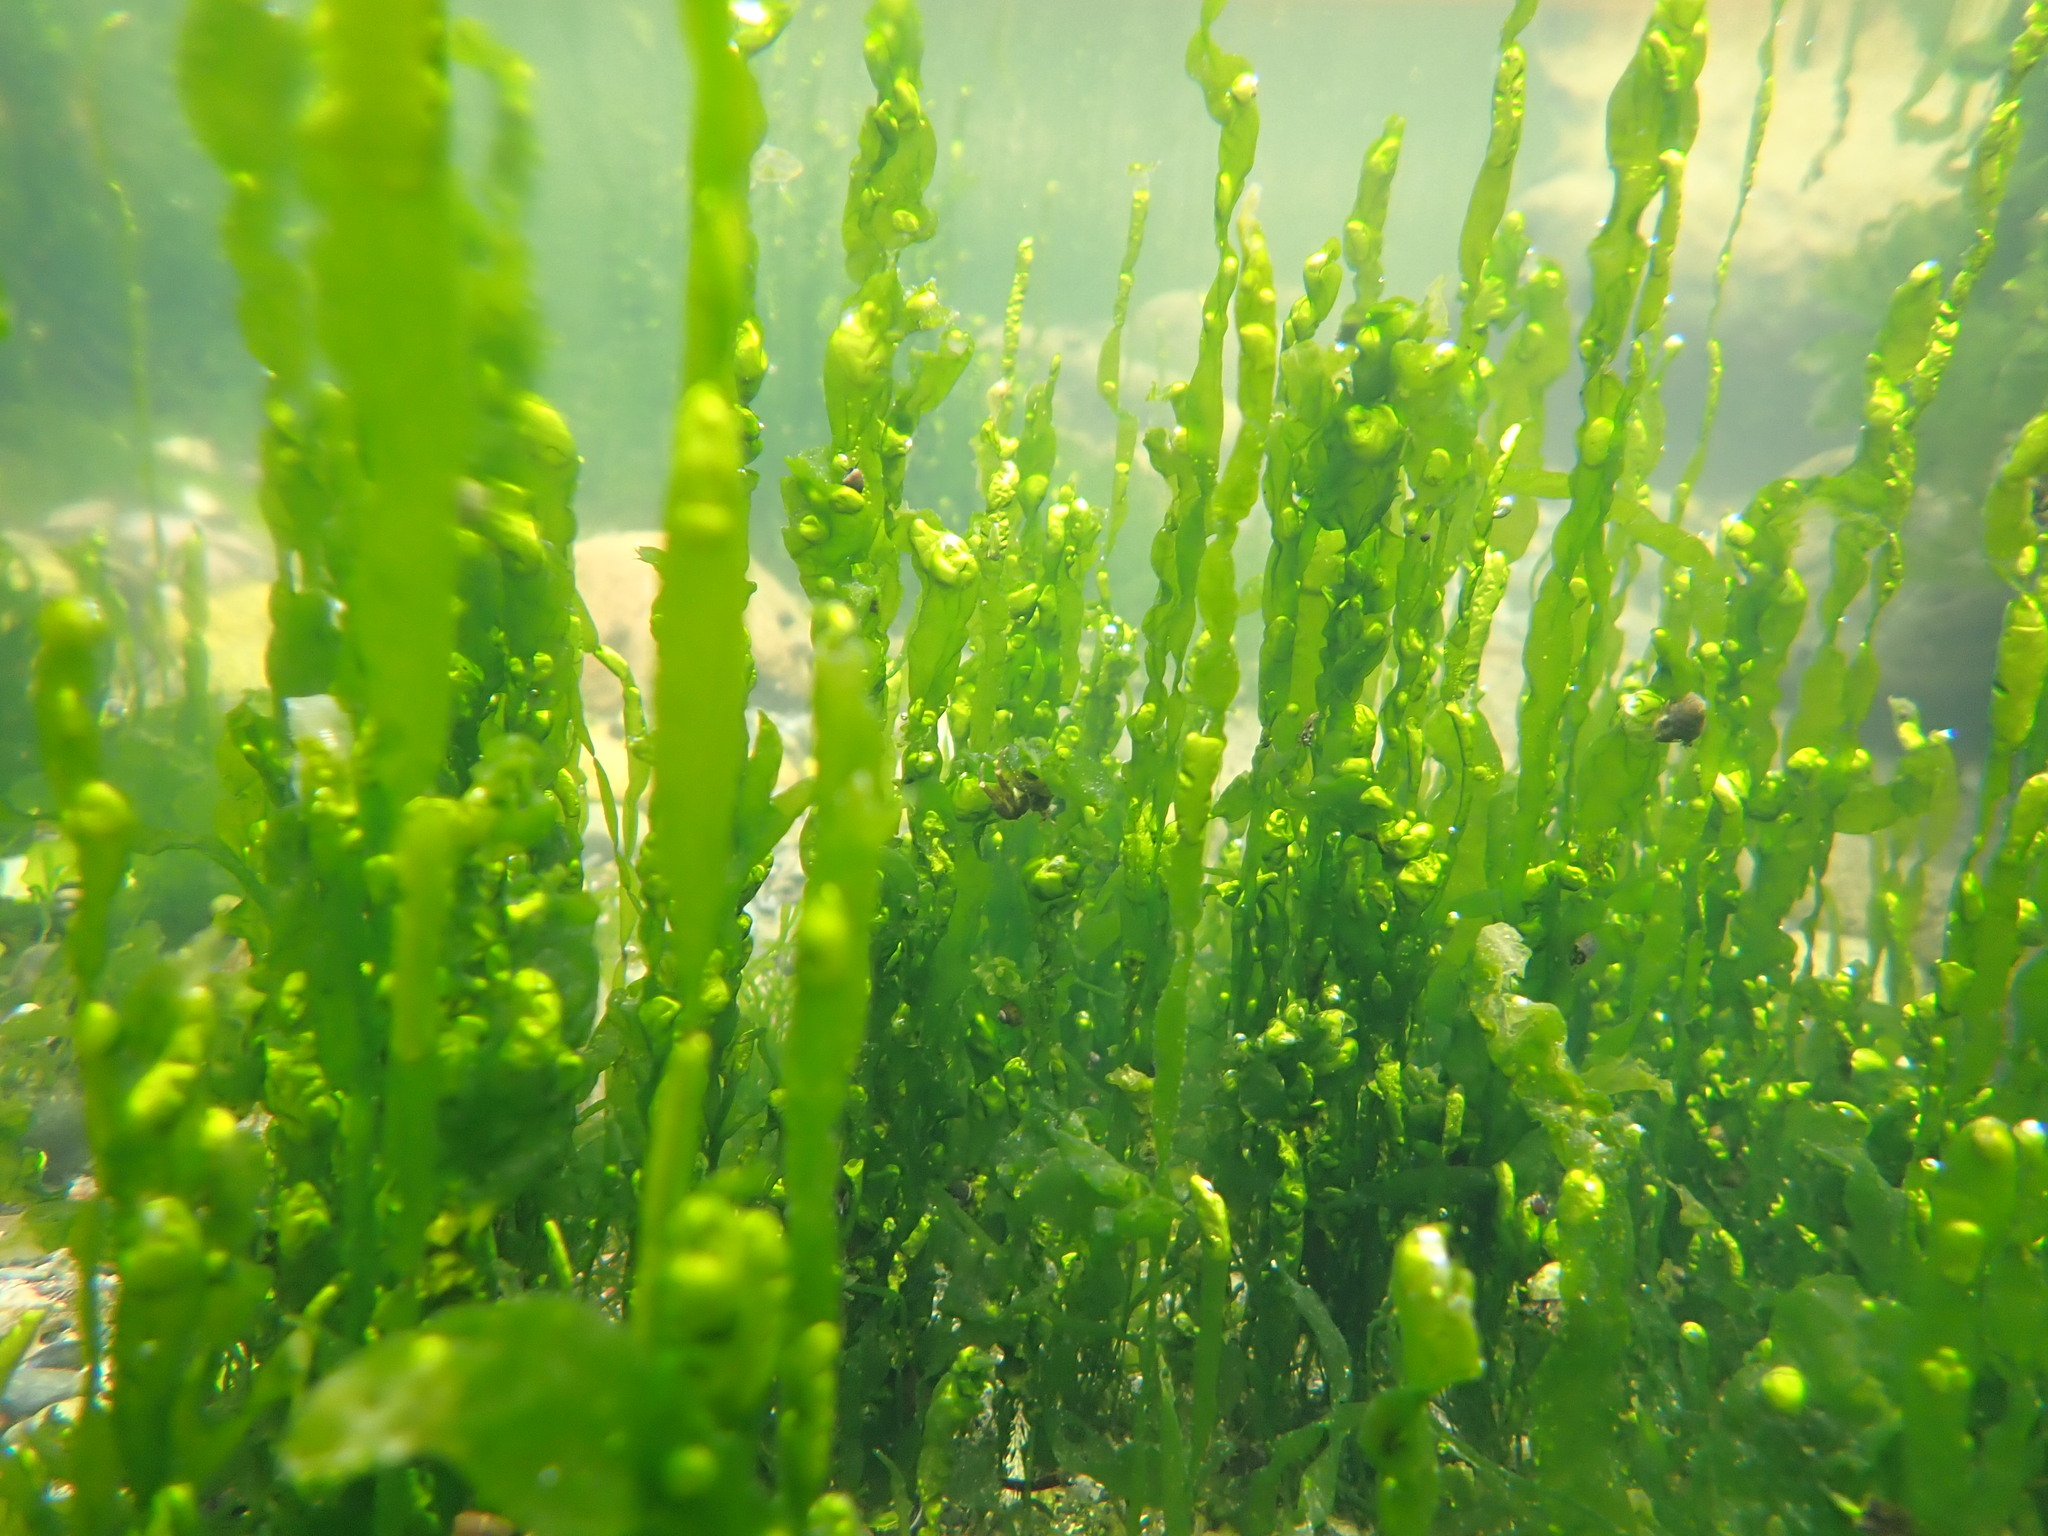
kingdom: Plantae
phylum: Chlorophyta
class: Ulvophyceae
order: Ulvales
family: Ulvaceae
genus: Ulva
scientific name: Ulva intestinalis
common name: Gut weed
